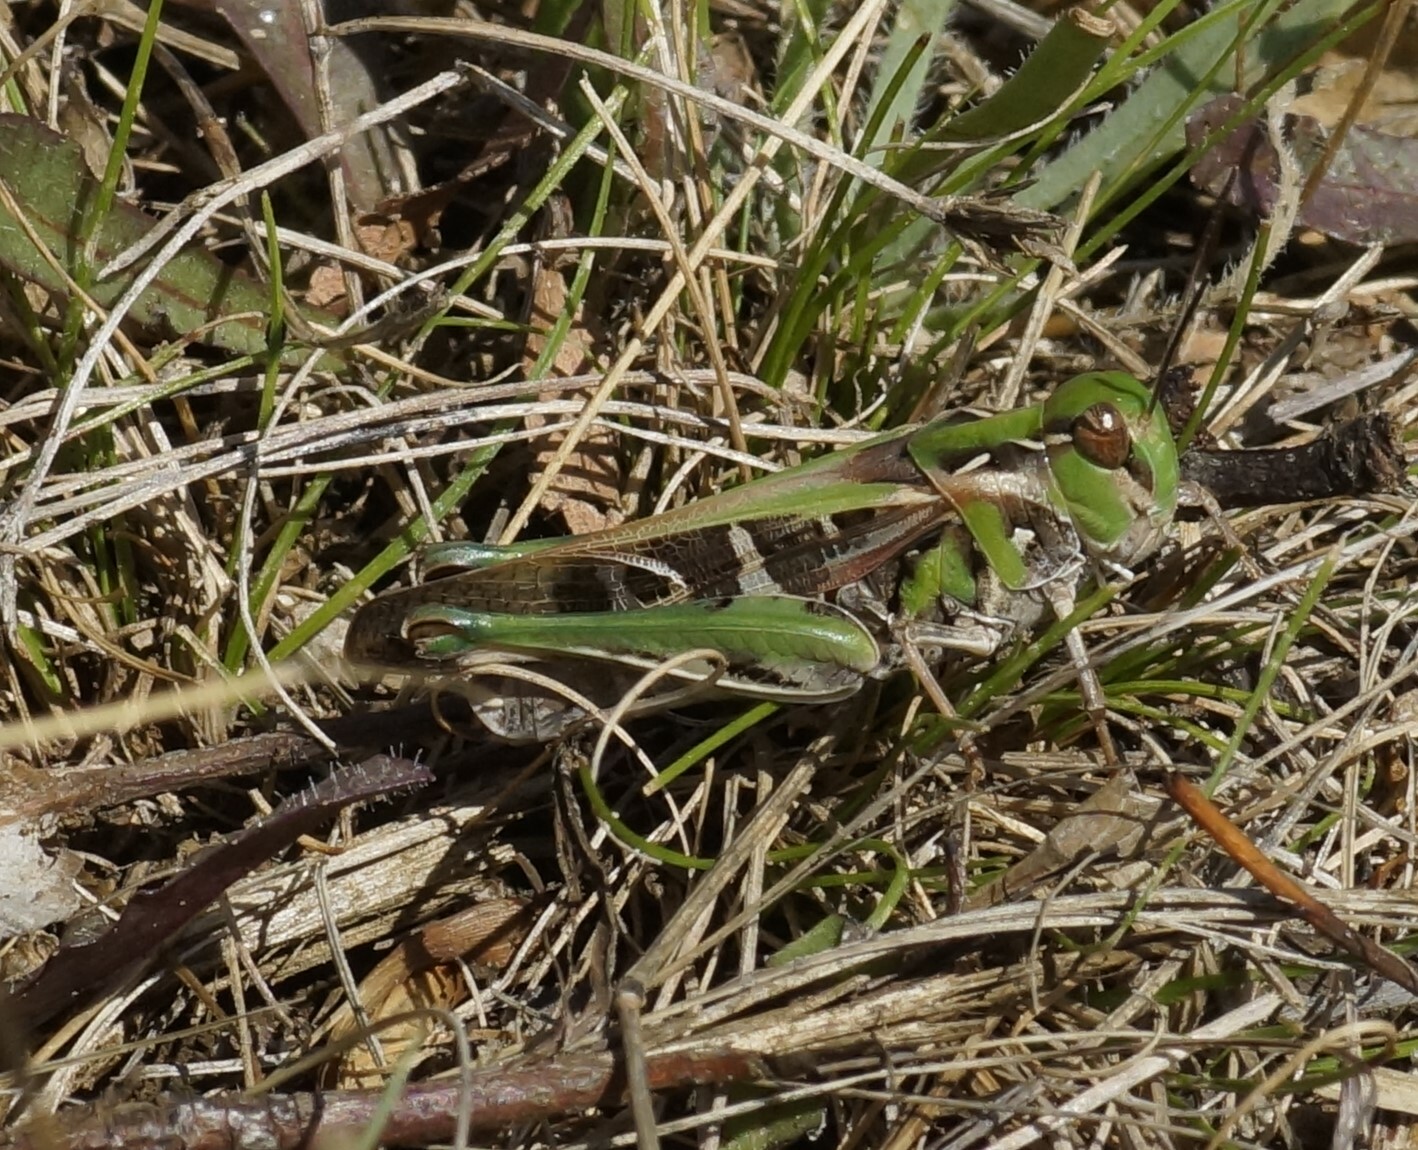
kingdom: Animalia
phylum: Arthropoda
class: Insecta
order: Orthoptera
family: Acrididae
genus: Oedaleus
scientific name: Oedaleus australis
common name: Eastern oedaleus
